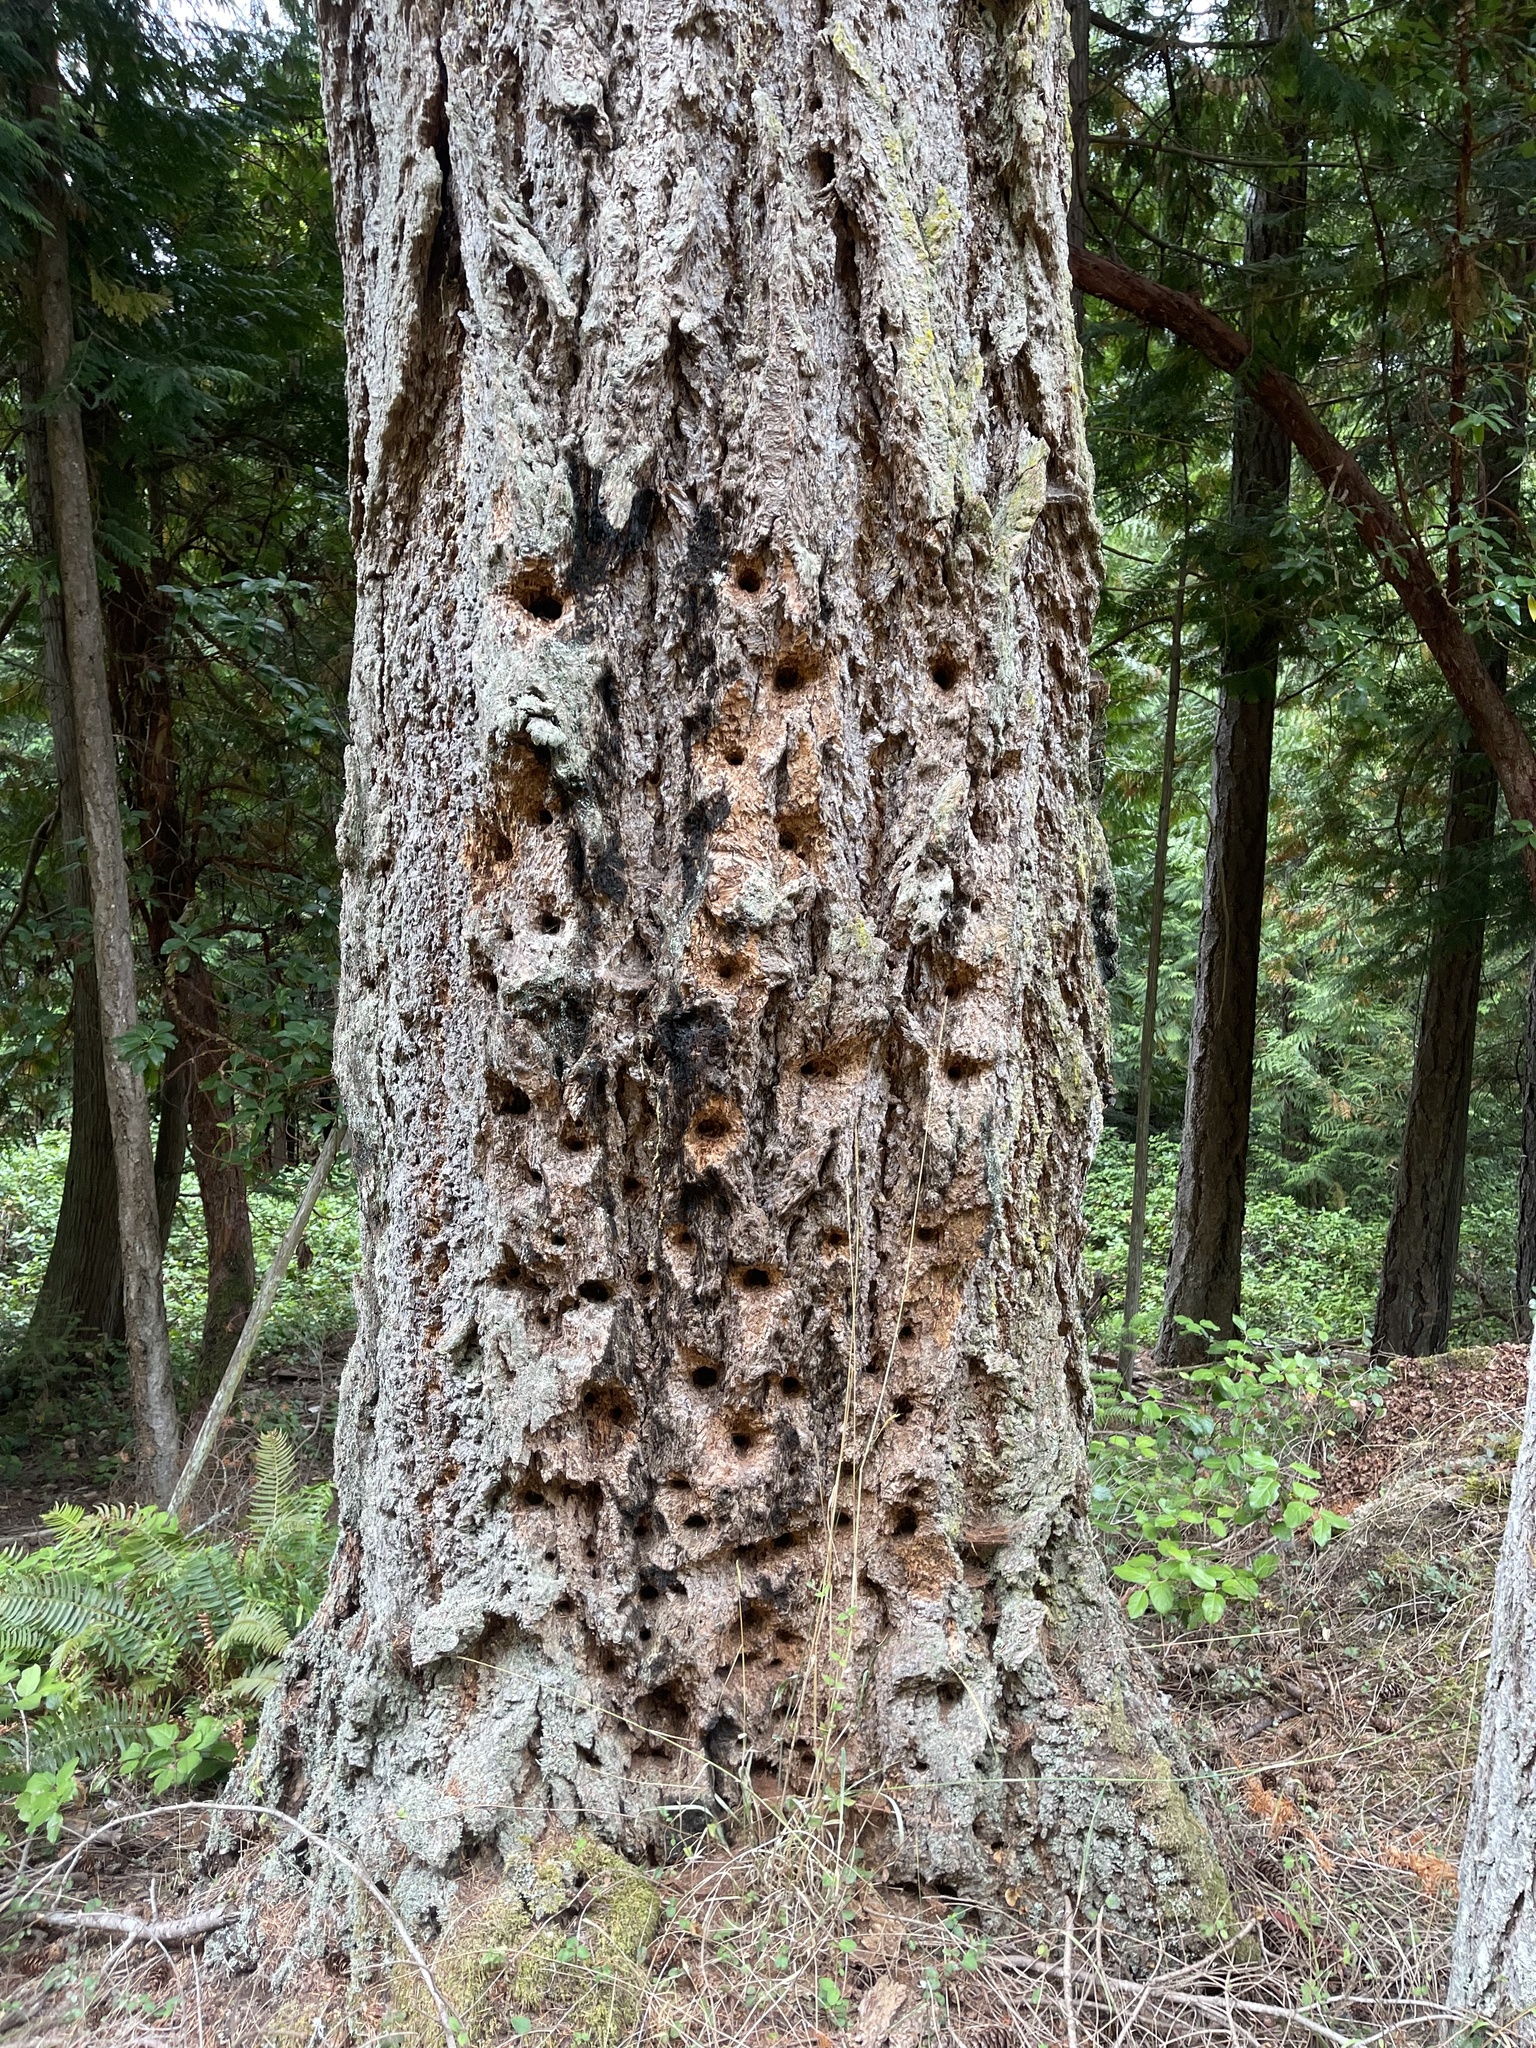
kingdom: Animalia
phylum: Chordata
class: Aves
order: Piciformes
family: Picidae
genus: Dryocopus
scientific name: Dryocopus pileatus
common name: Pileated woodpecker
